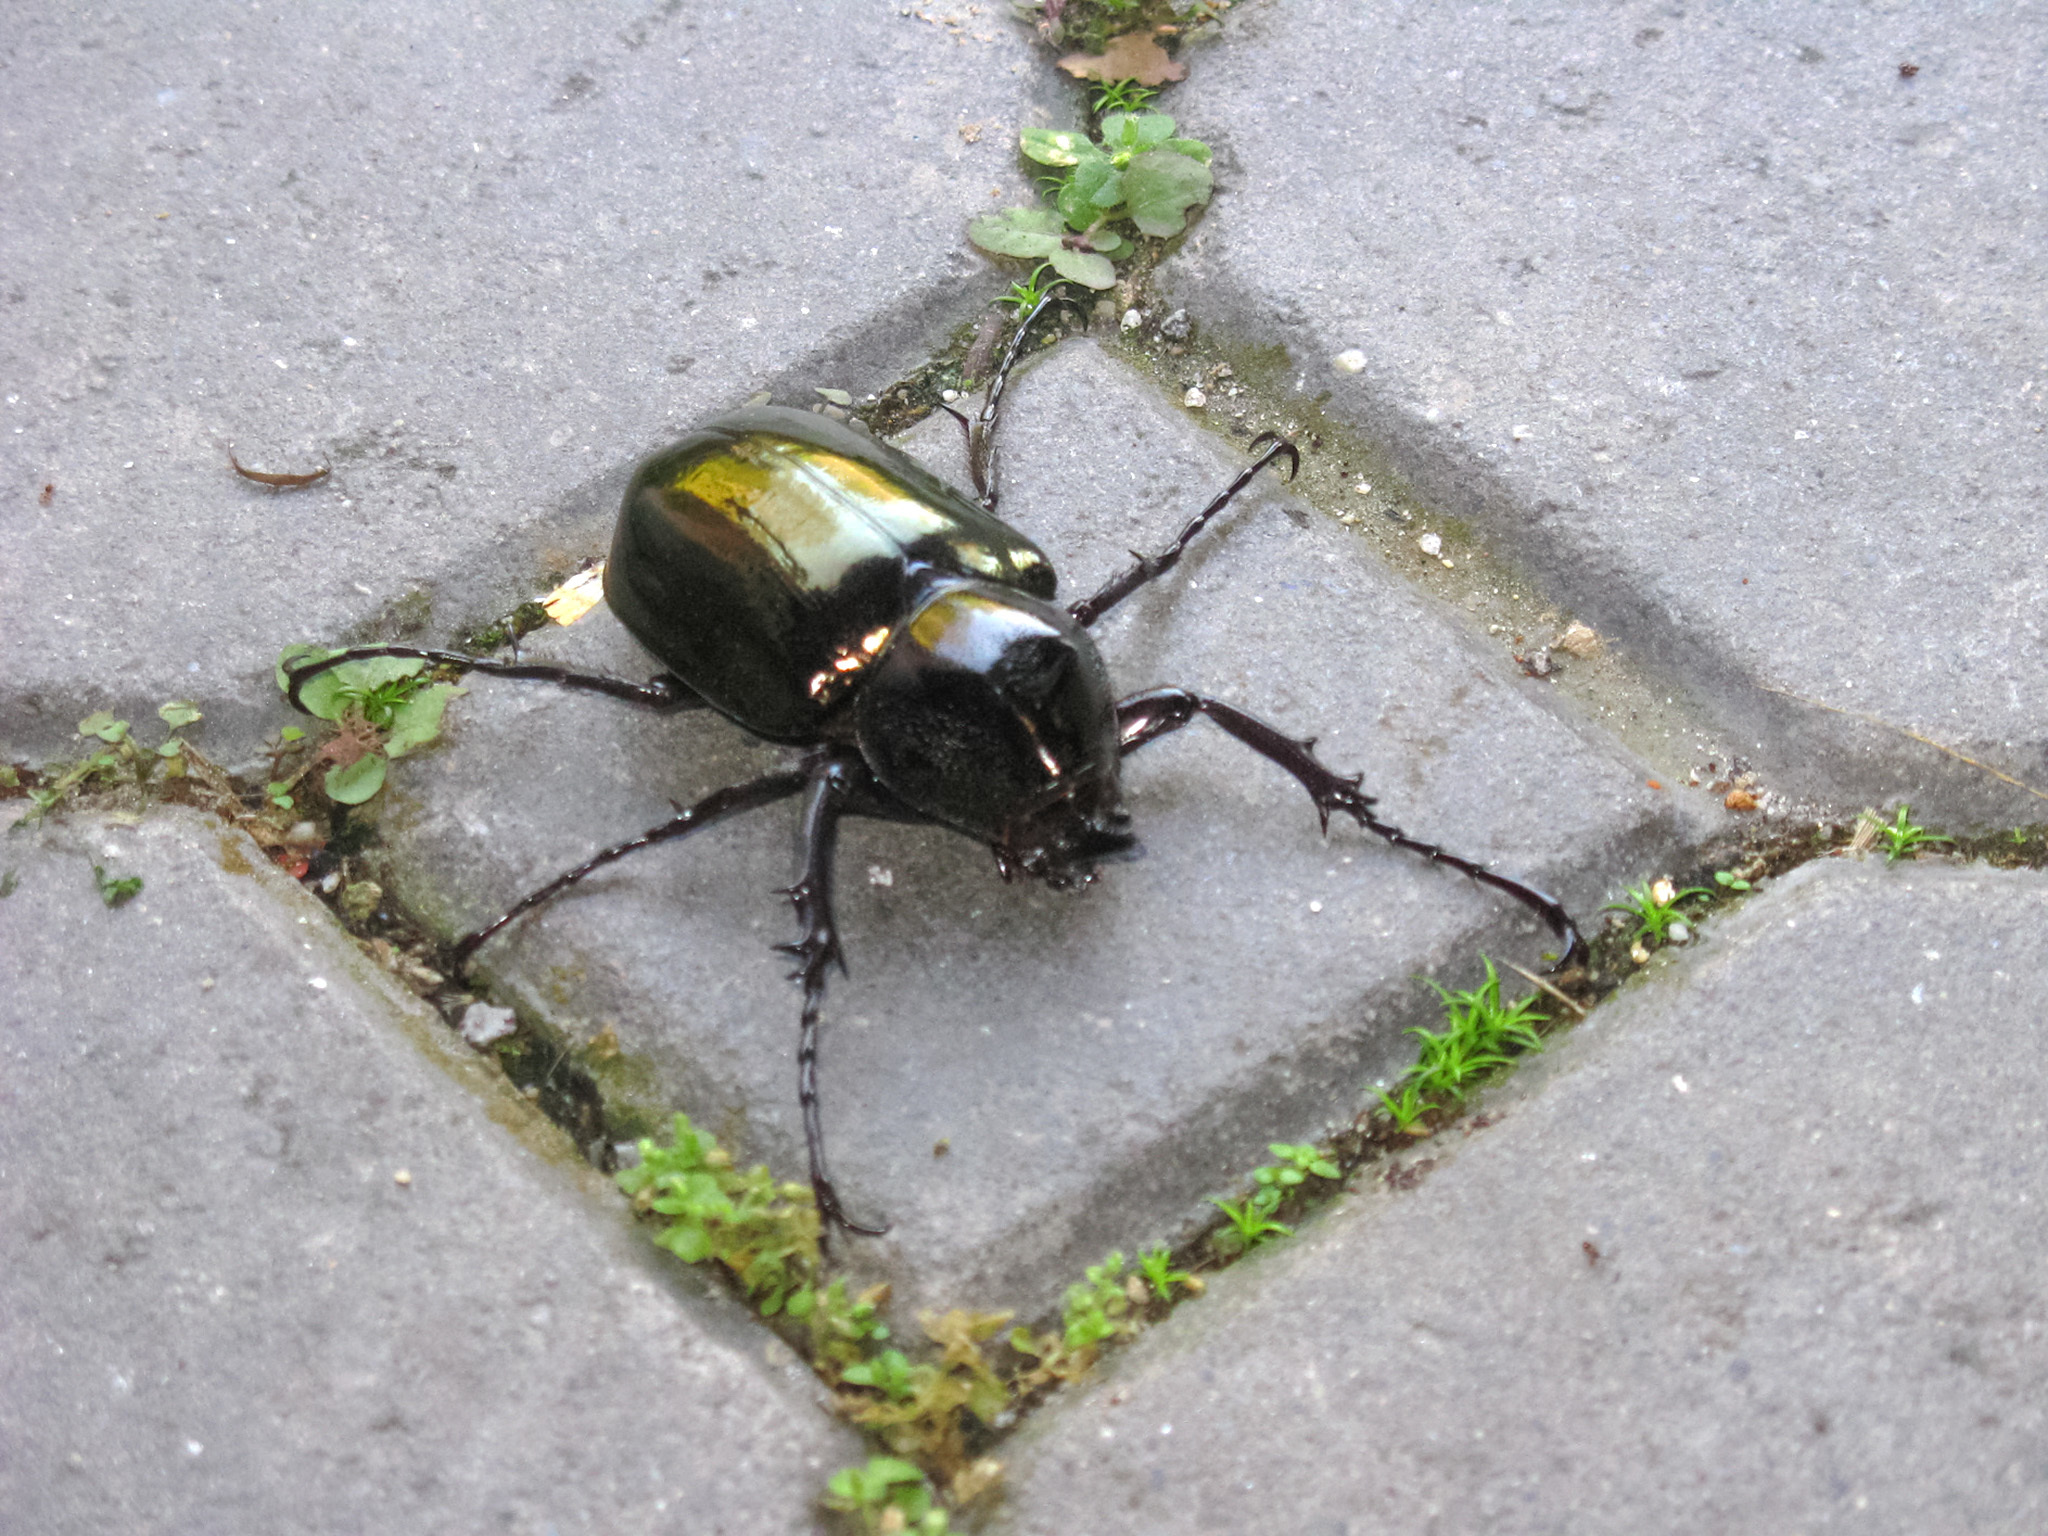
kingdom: Animalia
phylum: Arthropoda
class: Insecta
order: Coleoptera
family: Scarabaeidae
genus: Chalcosoma
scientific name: Chalcosoma chiron
